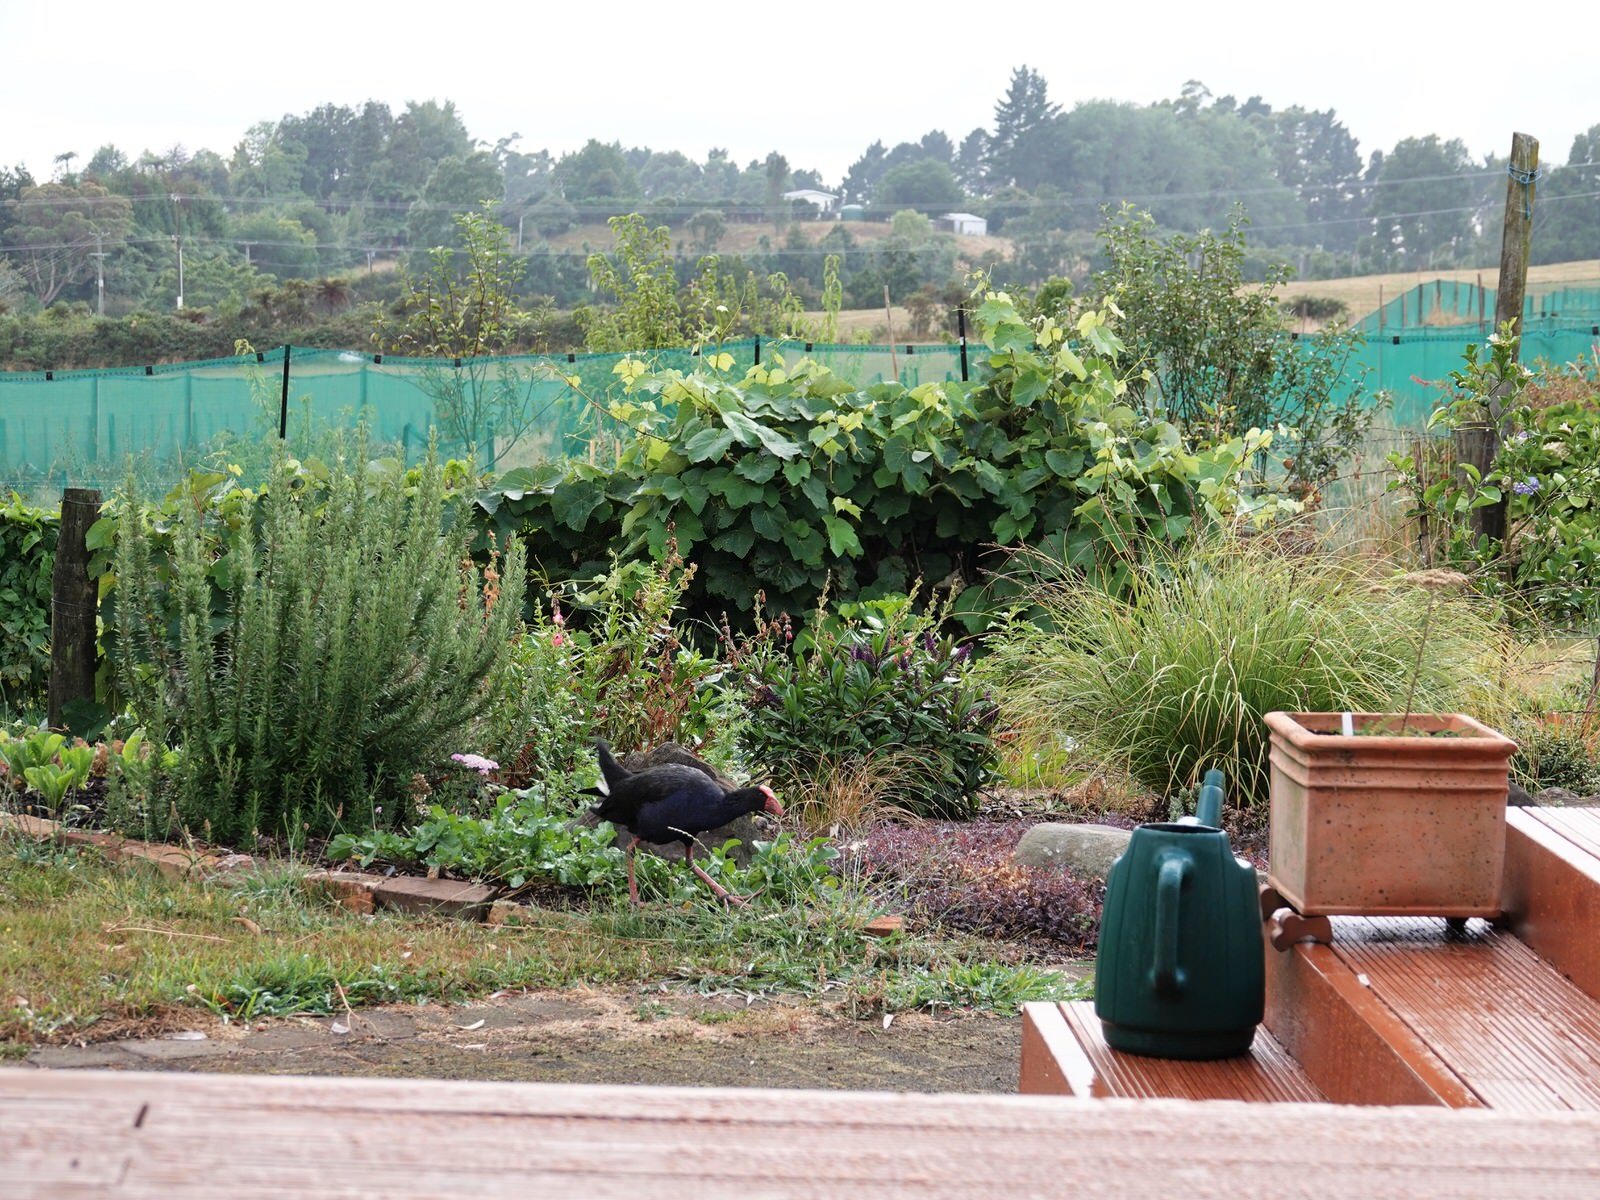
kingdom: Animalia
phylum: Chordata
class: Aves
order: Gruiformes
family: Rallidae
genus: Porphyrio
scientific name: Porphyrio melanotus
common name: Australasian swamphen
